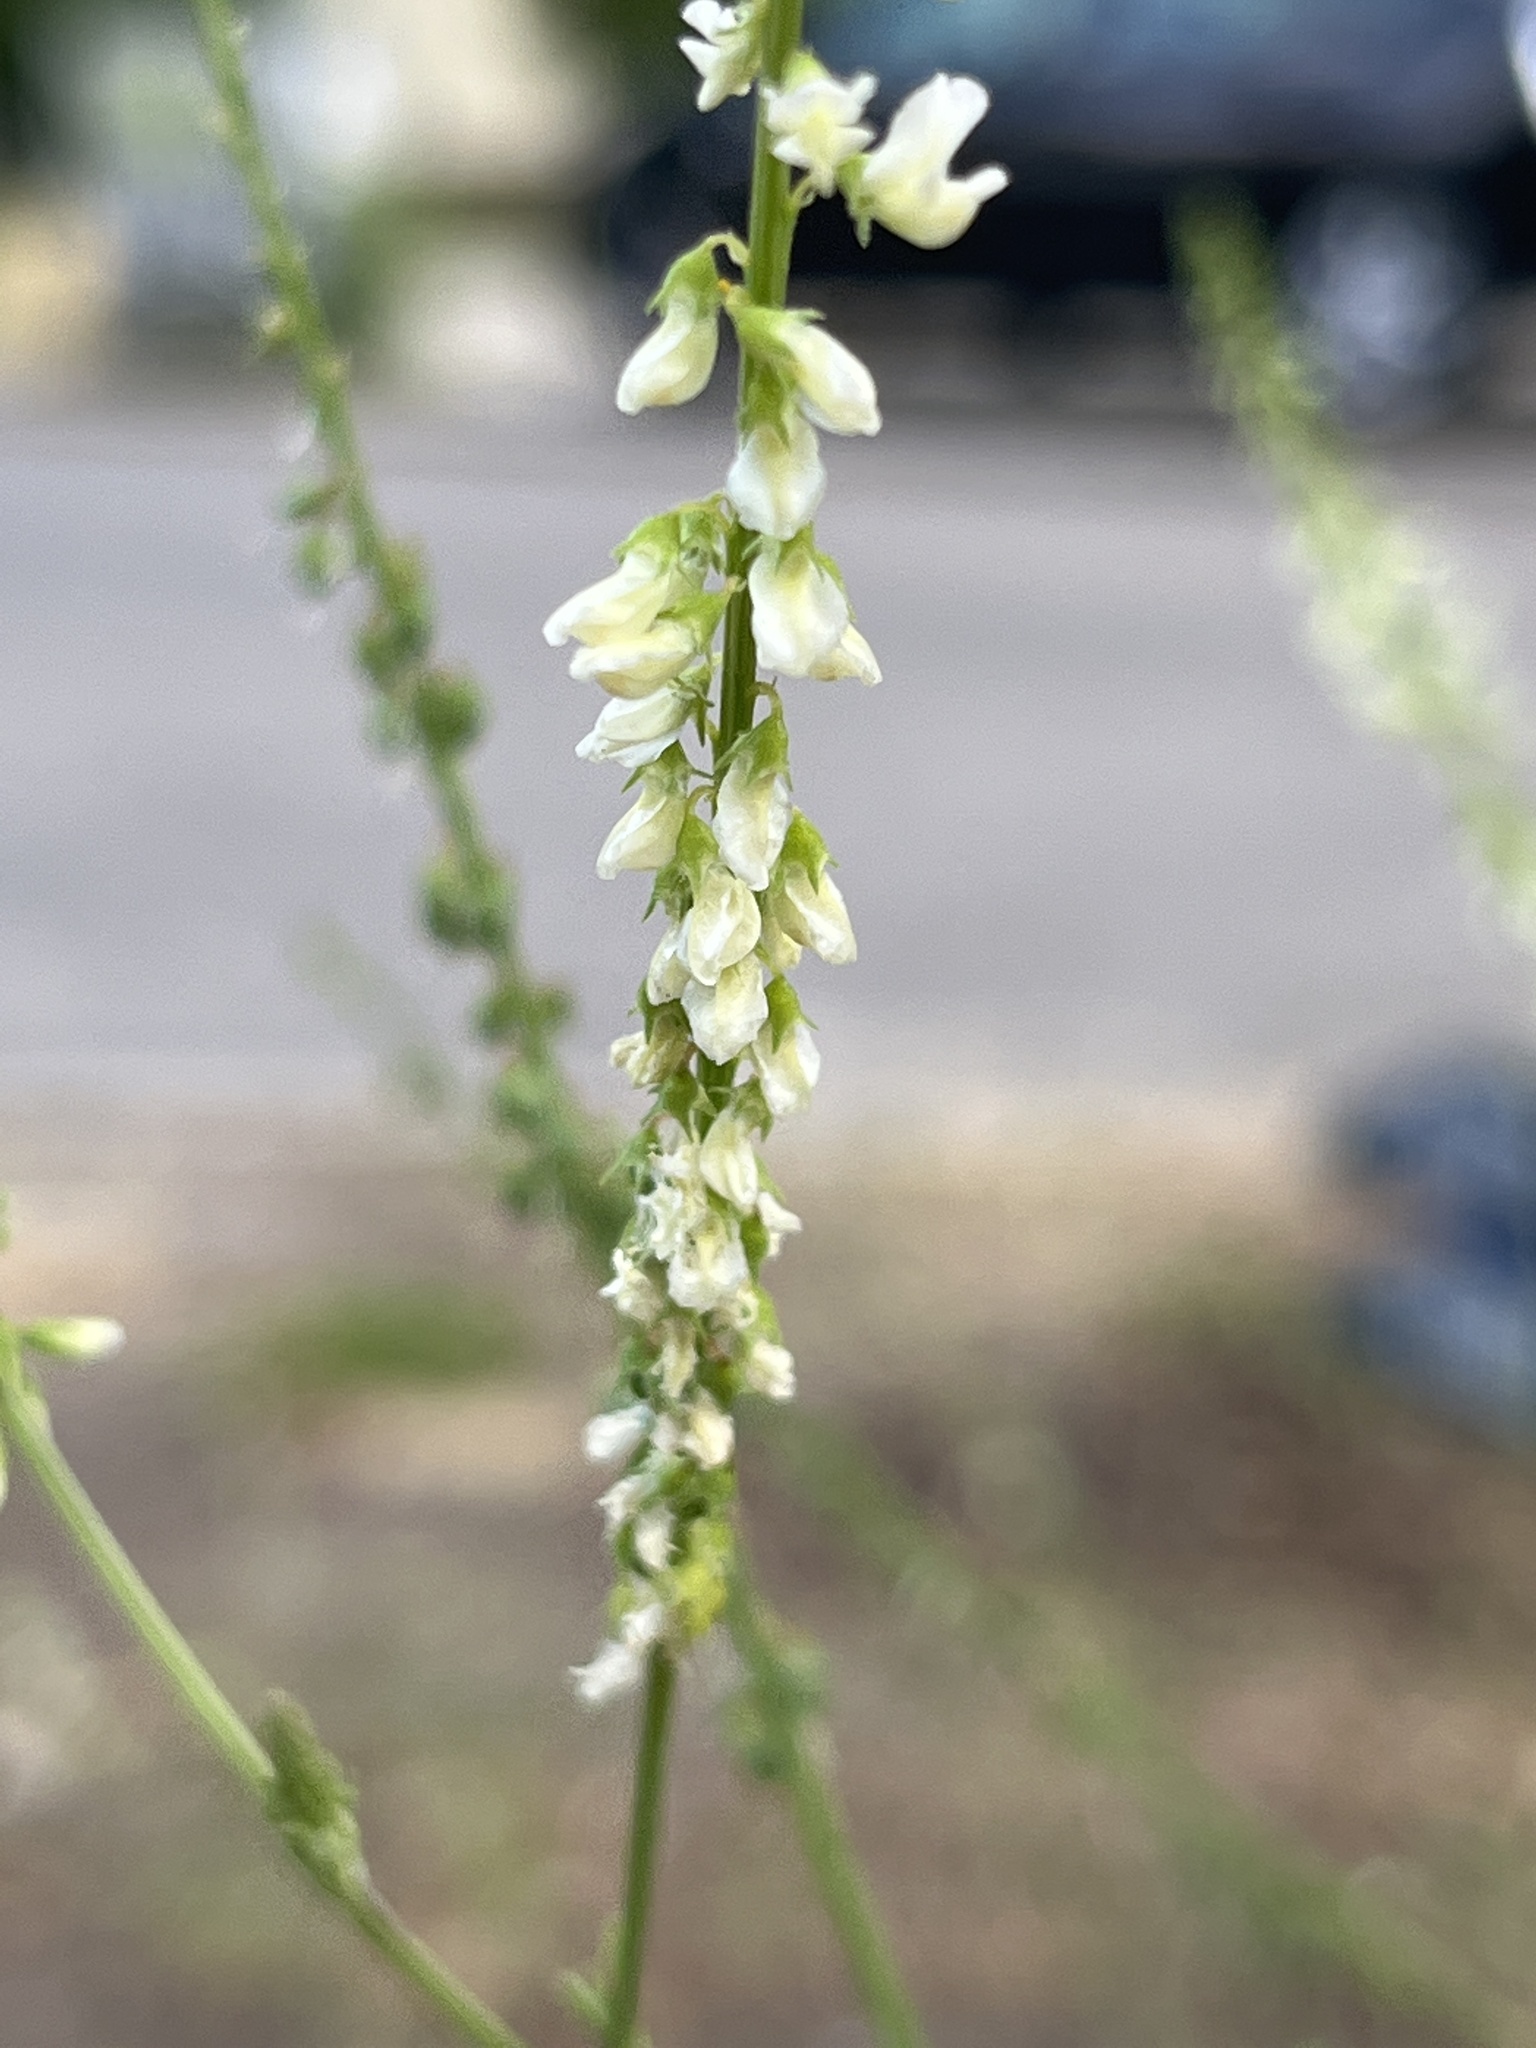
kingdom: Plantae
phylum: Tracheophyta
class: Magnoliopsida
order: Fabales
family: Fabaceae
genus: Melilotus
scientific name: Melilotus albus
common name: White melilot
